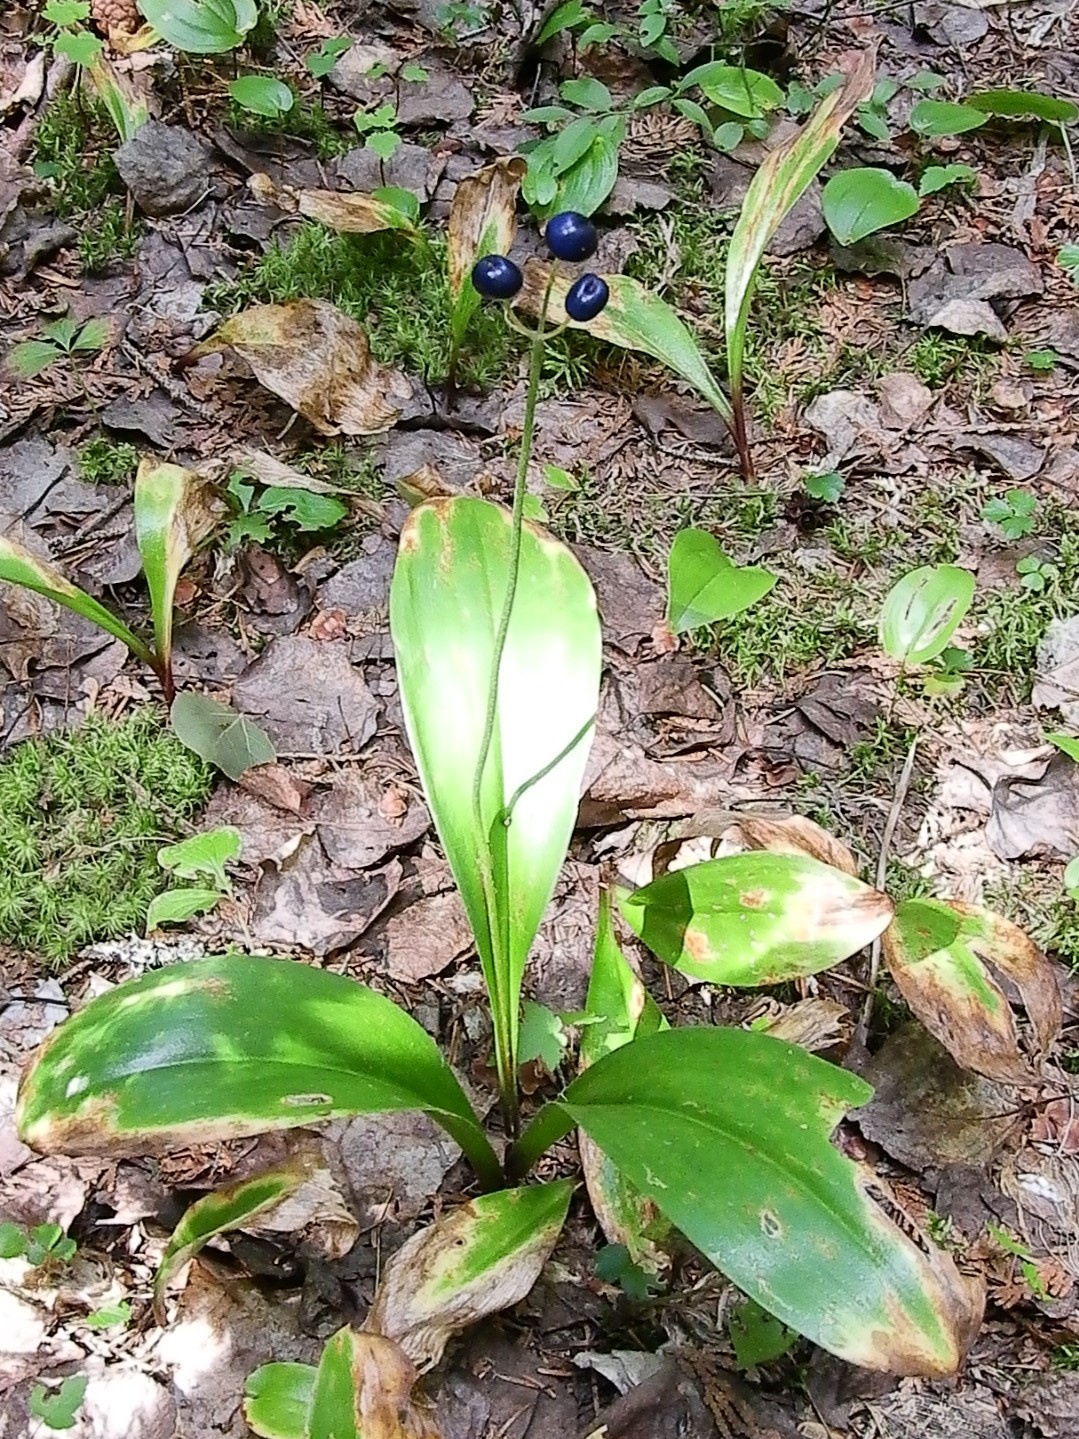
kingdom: Plantae
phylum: Tracheophyta
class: Liliopsida
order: Liliales
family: Liliaceae
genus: Clintonia
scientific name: Clintonia borealis
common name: Yellow clintonia
